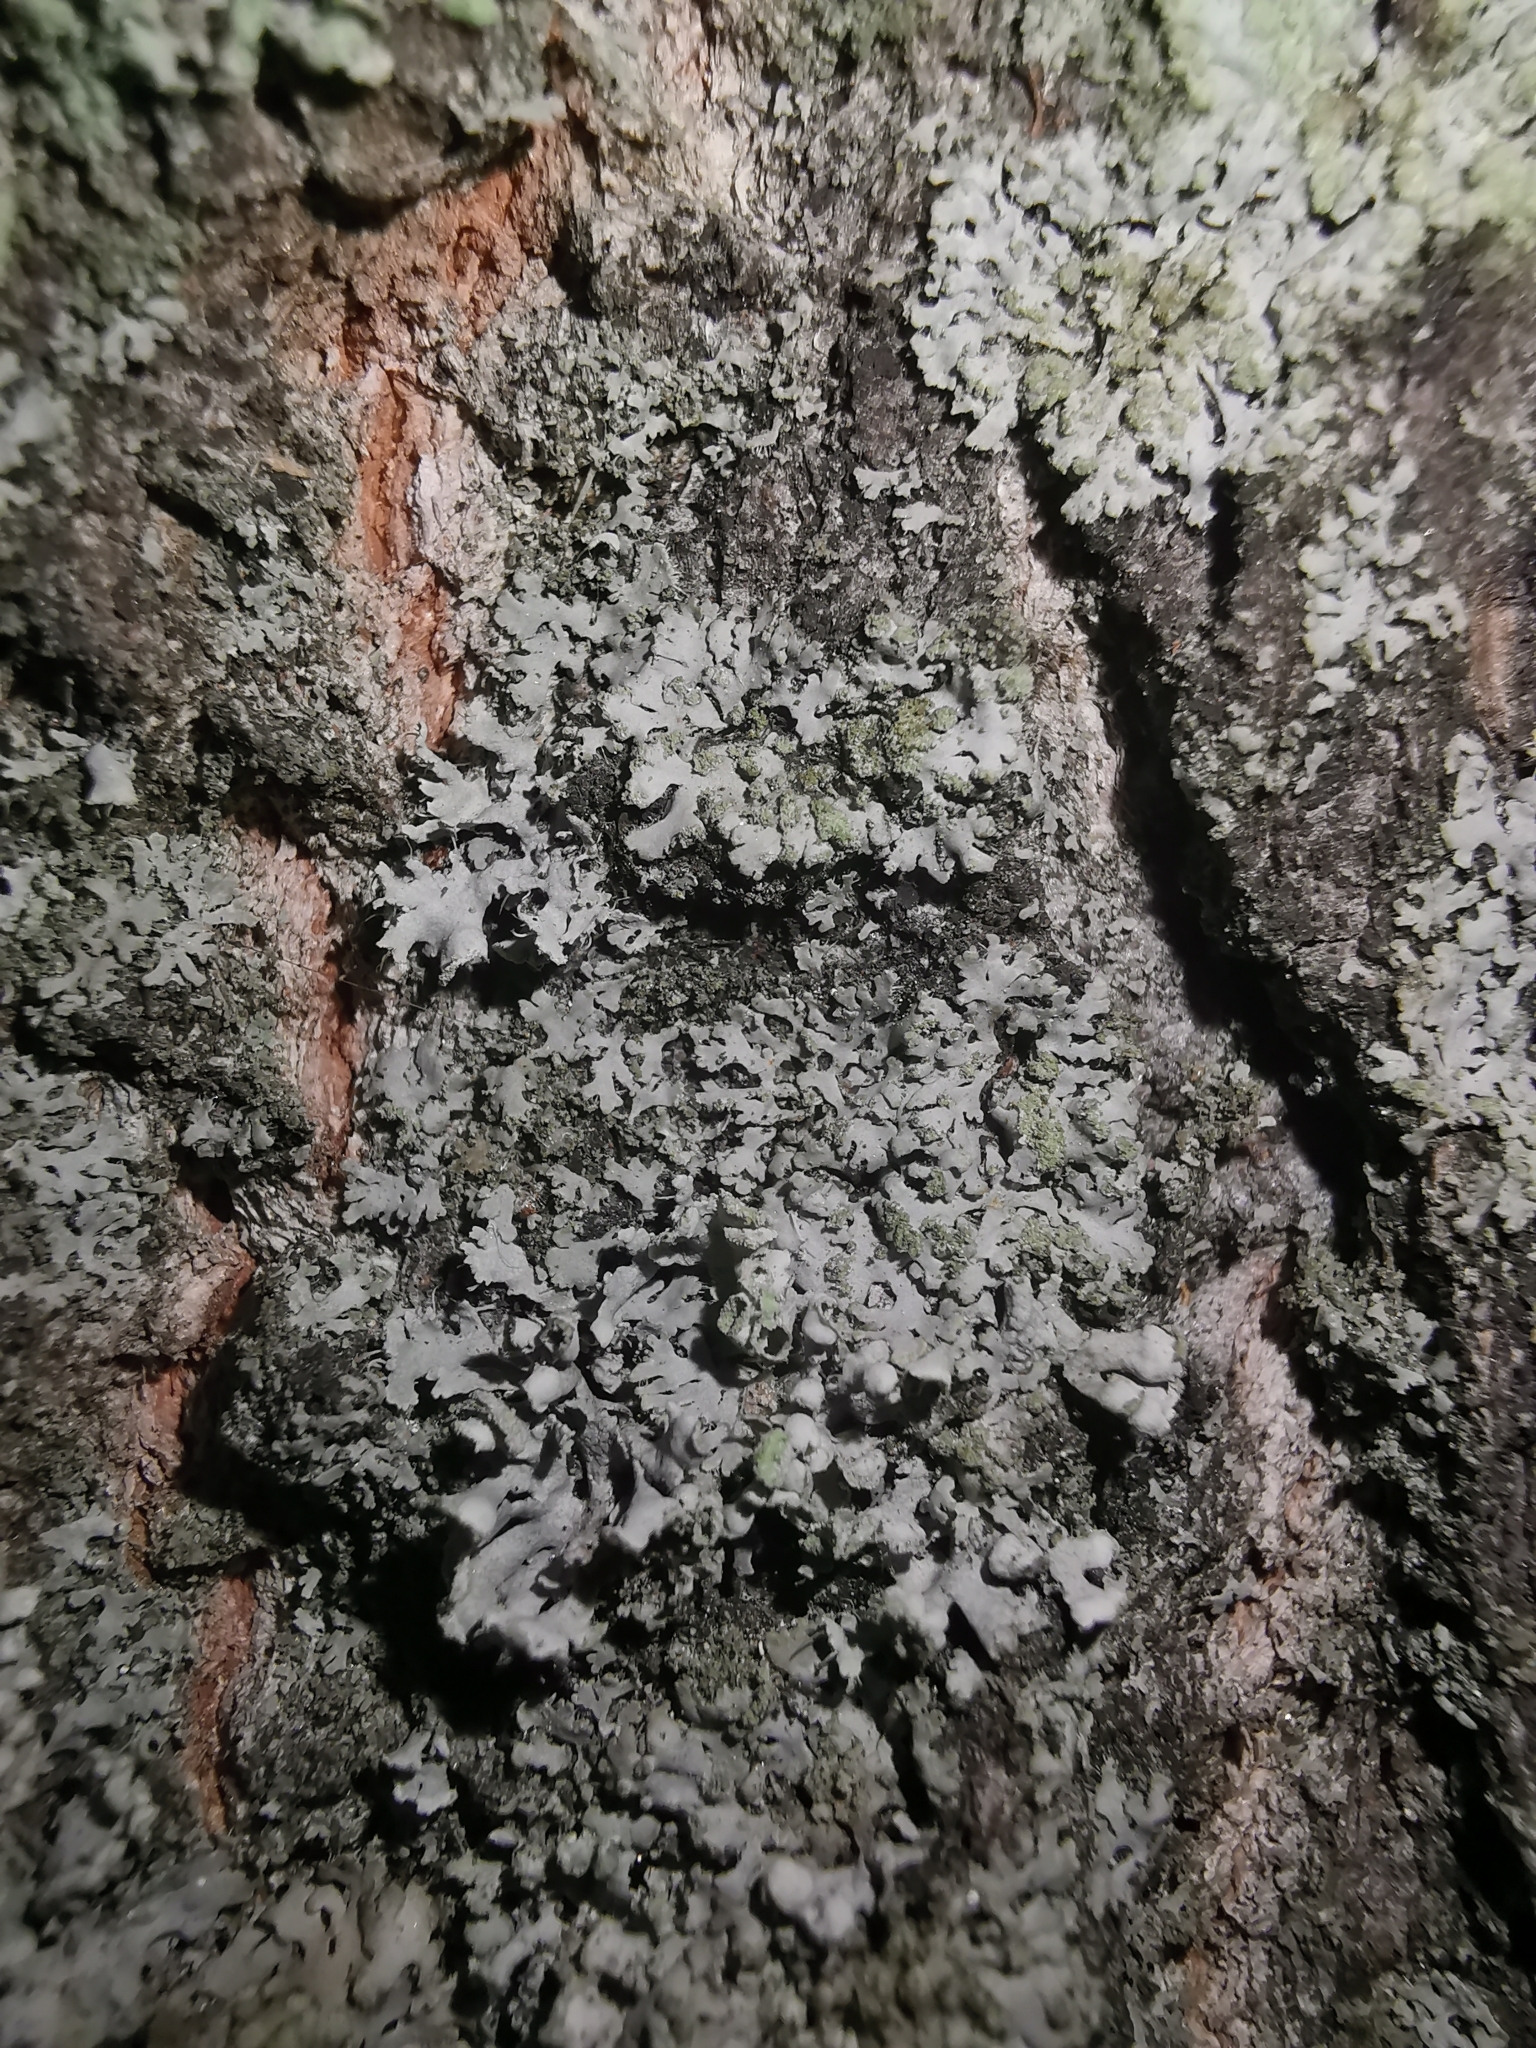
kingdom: Fungi
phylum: Ascomycota
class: Lecanoromycetes
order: Caliciales
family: Physciaceae
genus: Phaeophyscia
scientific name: Phaeophyscia orbicularis
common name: Mealy shadow lichen
